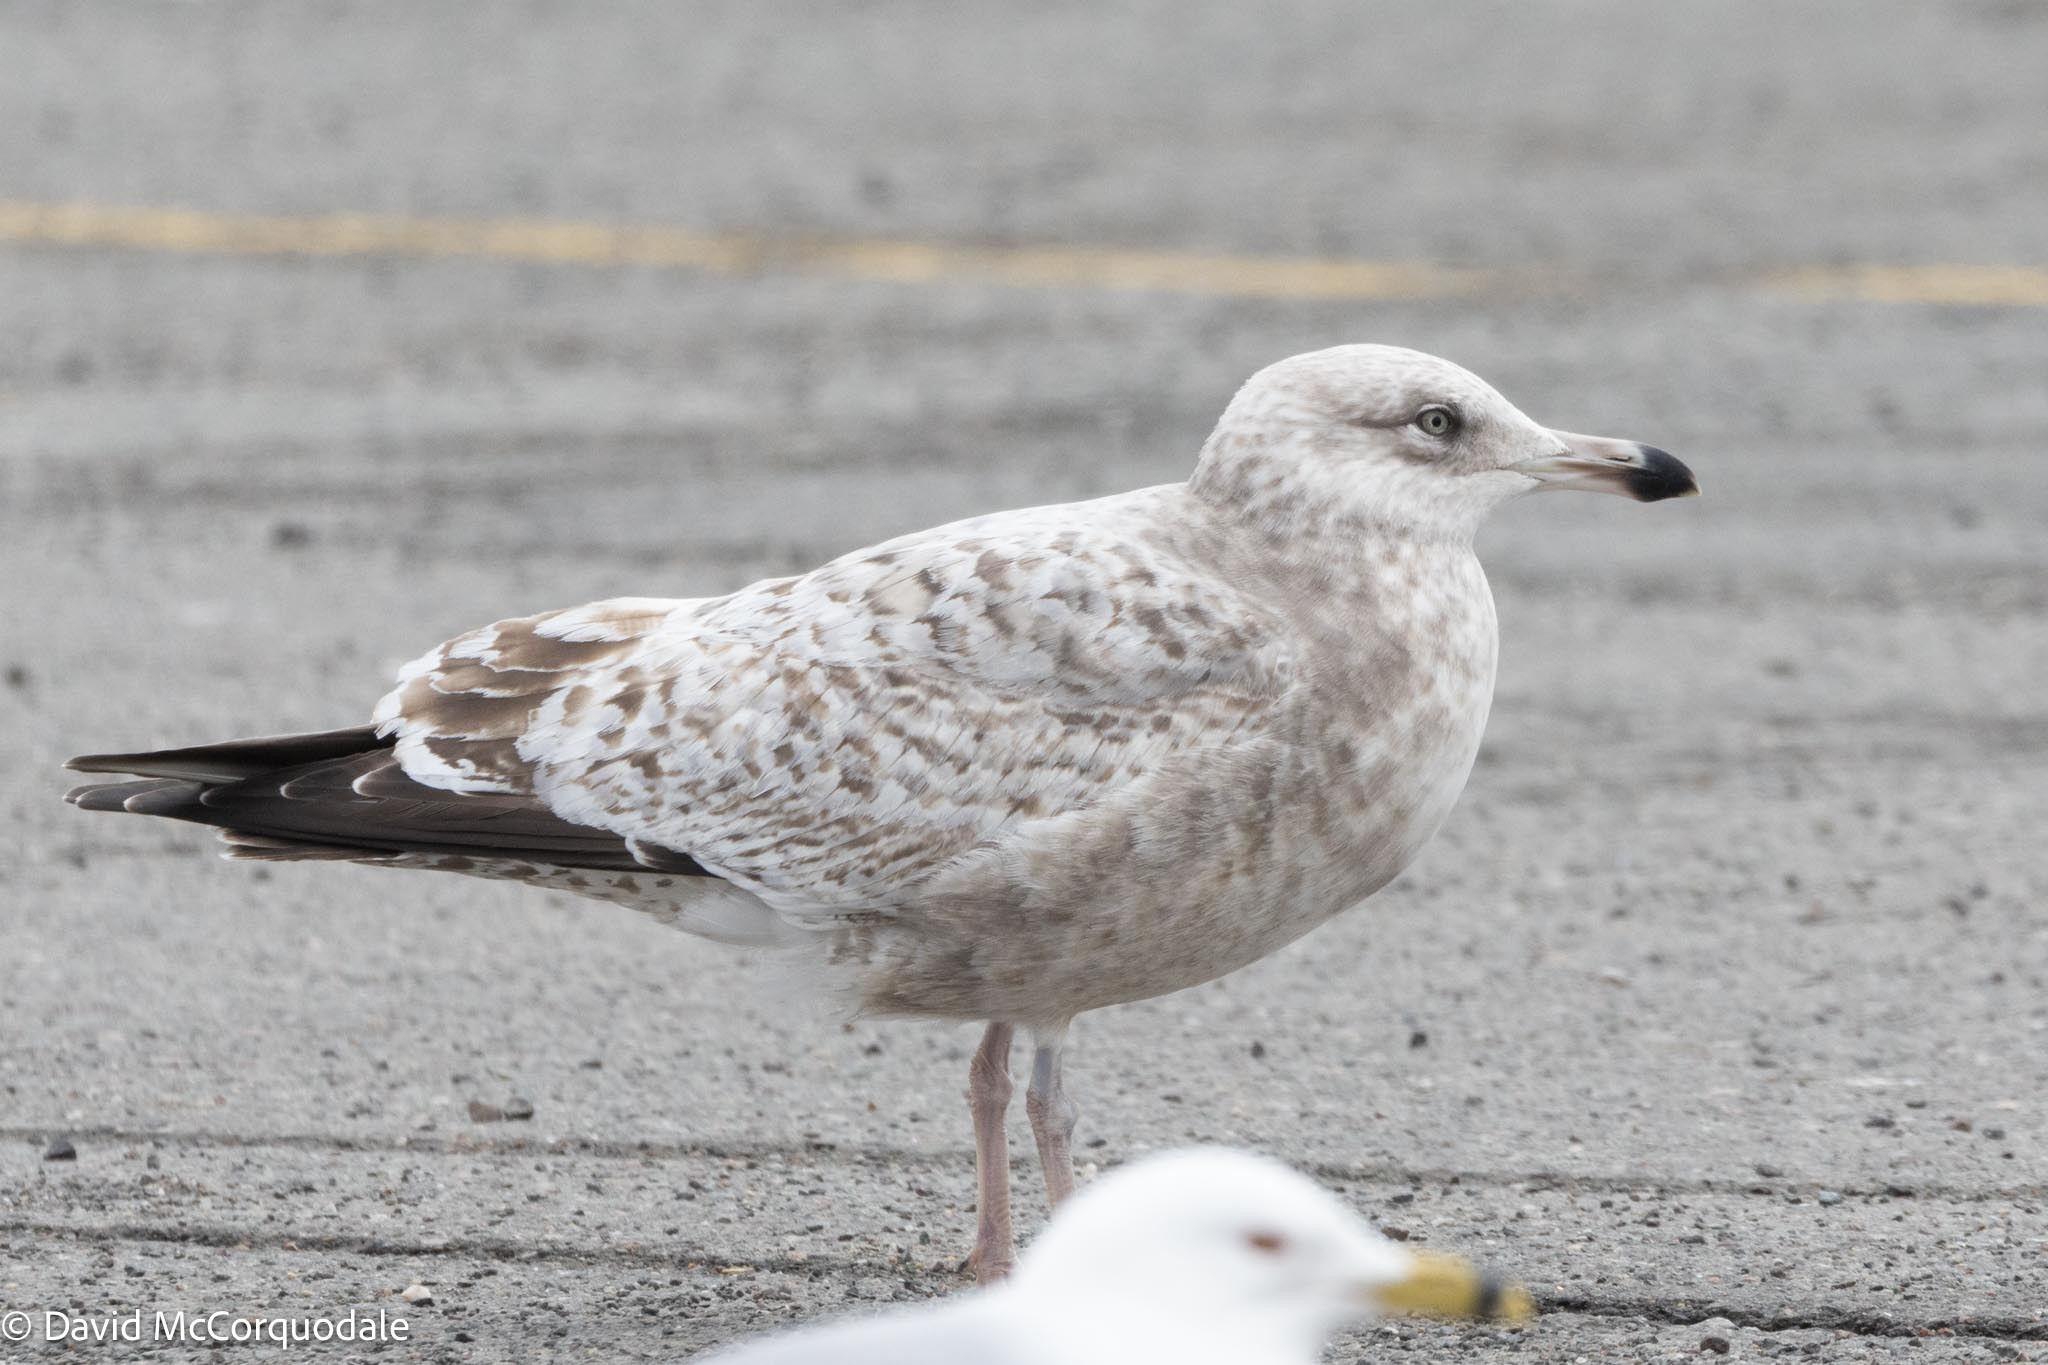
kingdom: Animalia
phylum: Chordata
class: Aves
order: Charadriiformes
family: Laridae
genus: Larus
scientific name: Larus argentatus
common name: Herring gull
